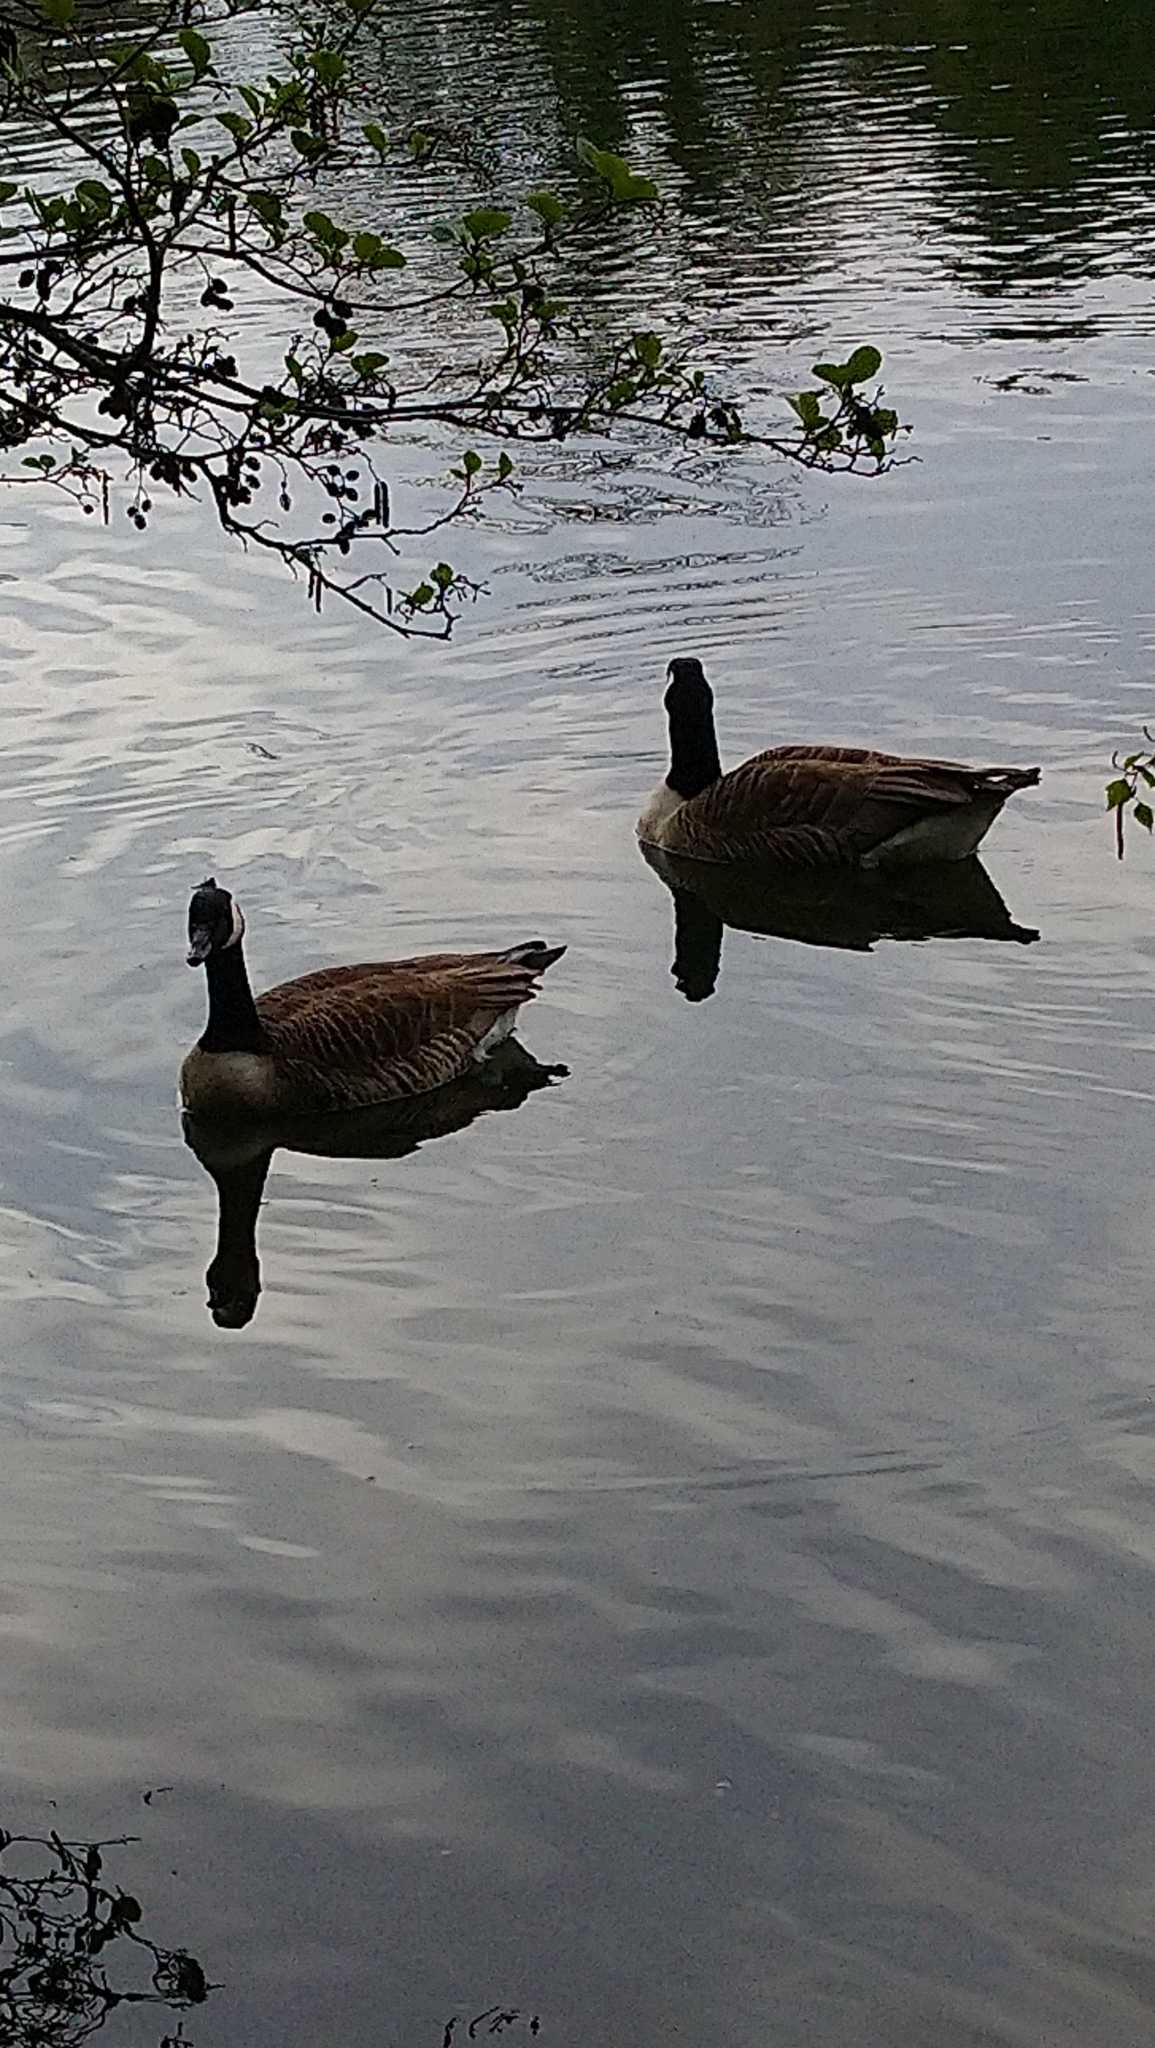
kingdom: Animalia
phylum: Chordata
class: Aves
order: Anseriformes
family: Anatidae
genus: Branta
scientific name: Branta canadensis
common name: Canada goose
